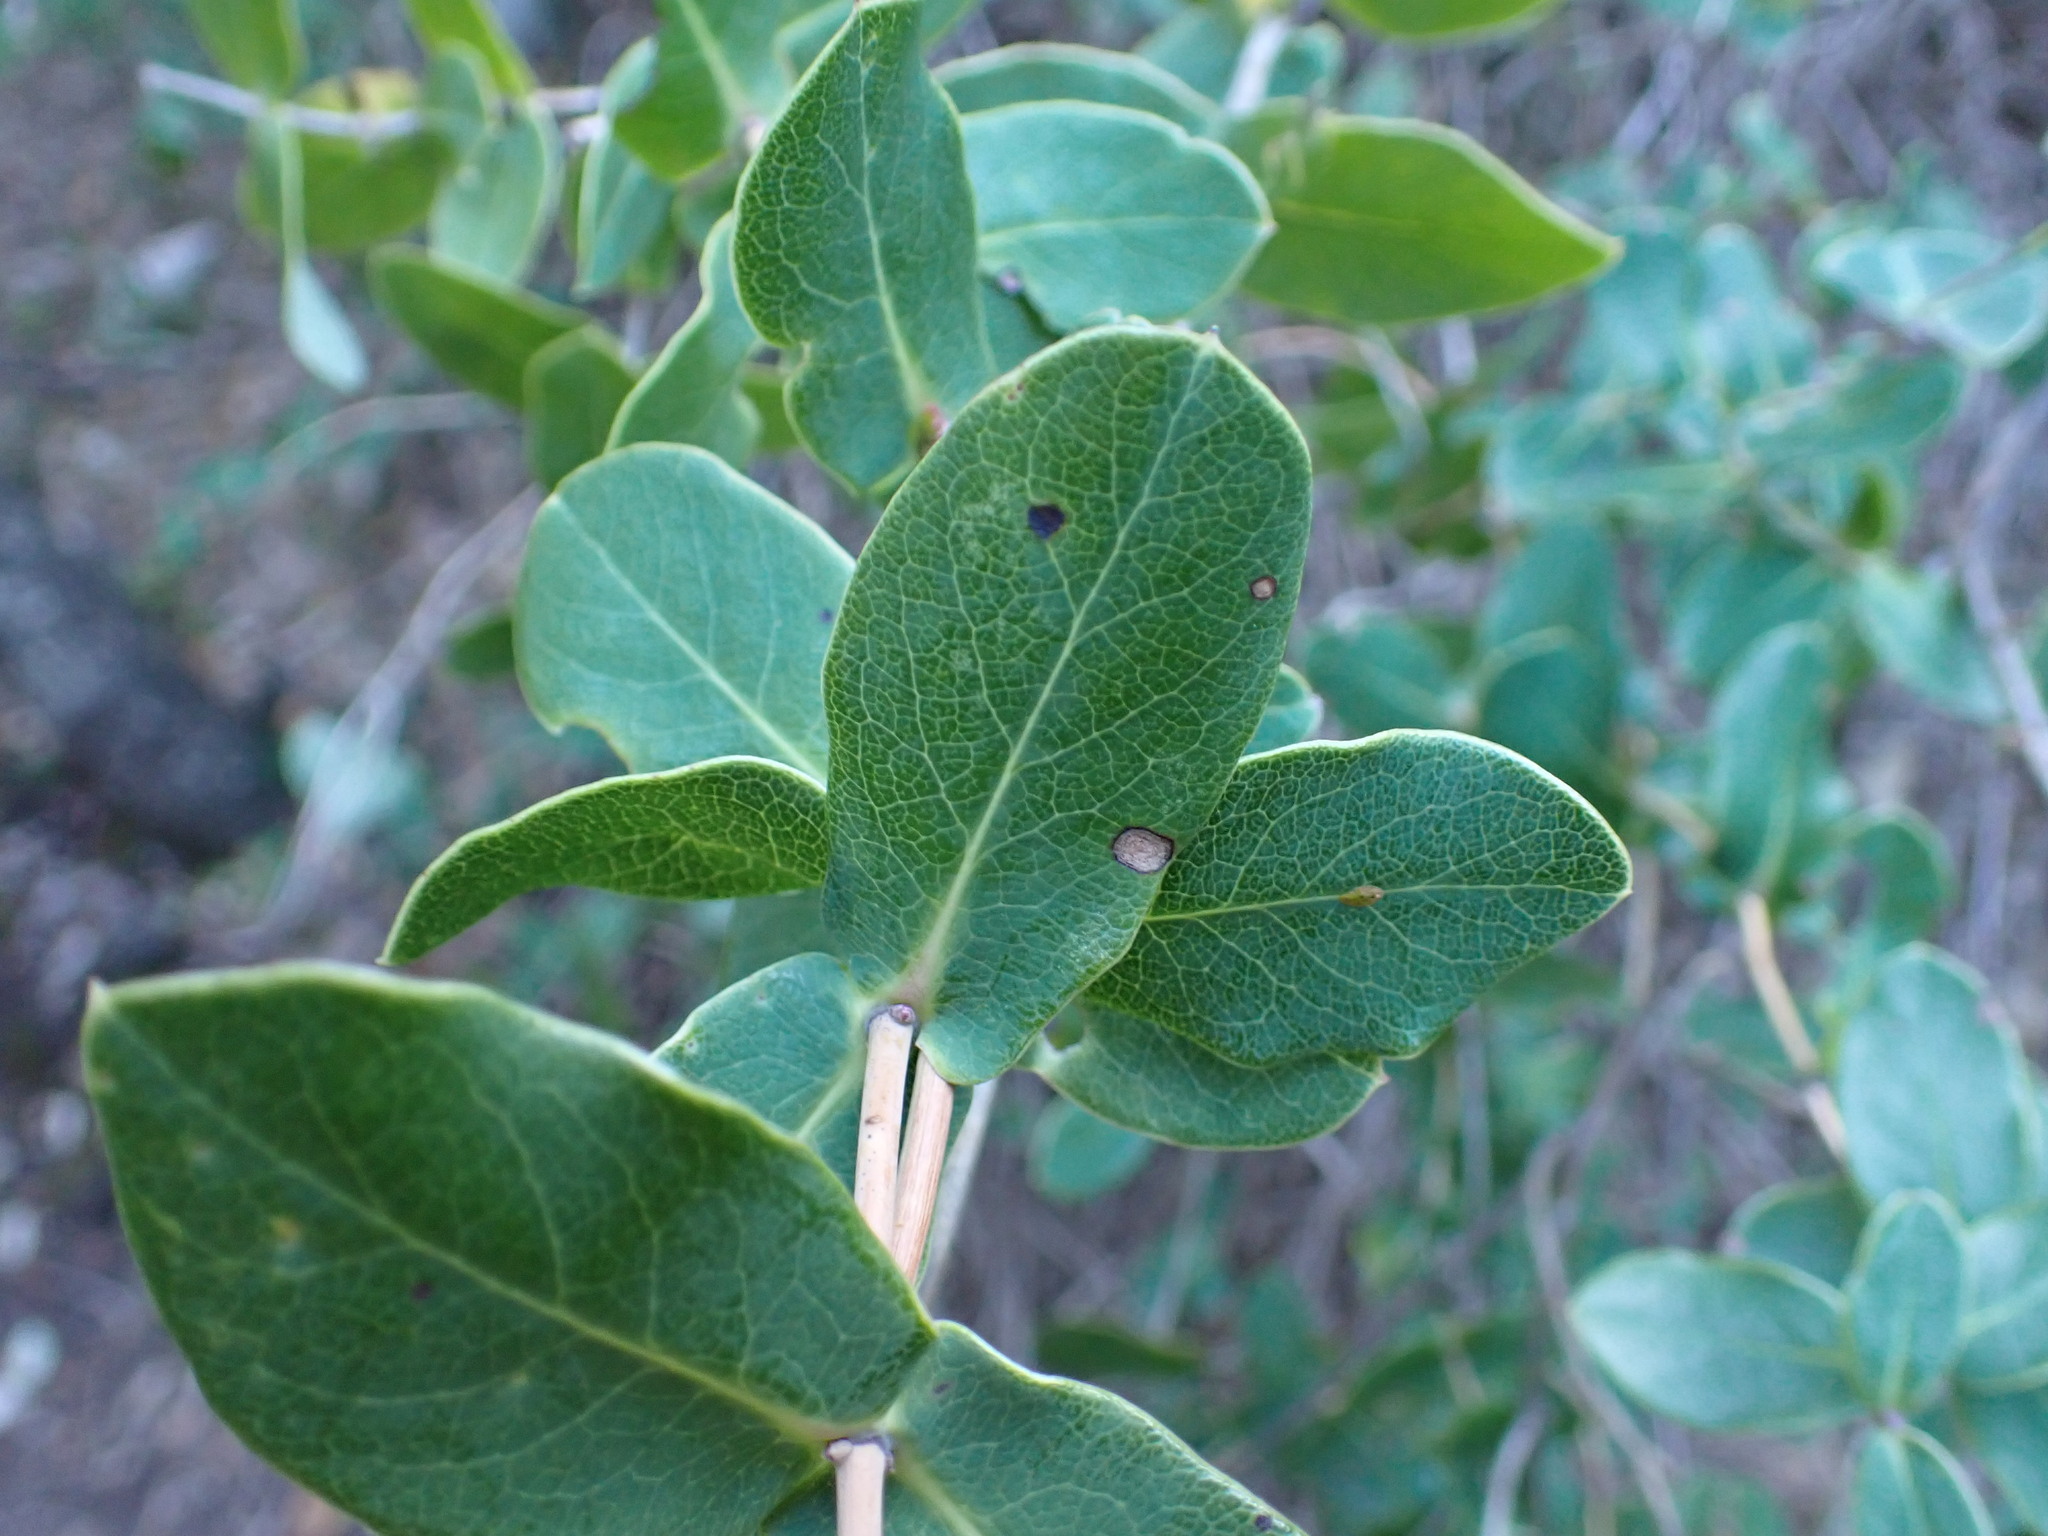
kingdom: Plantae
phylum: Tracheophyta
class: Magnoliopsida
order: Dipsacales
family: Caprifoliaceae
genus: Lonicera
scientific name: Lonicera implexa
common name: Minorca honeysuckle
